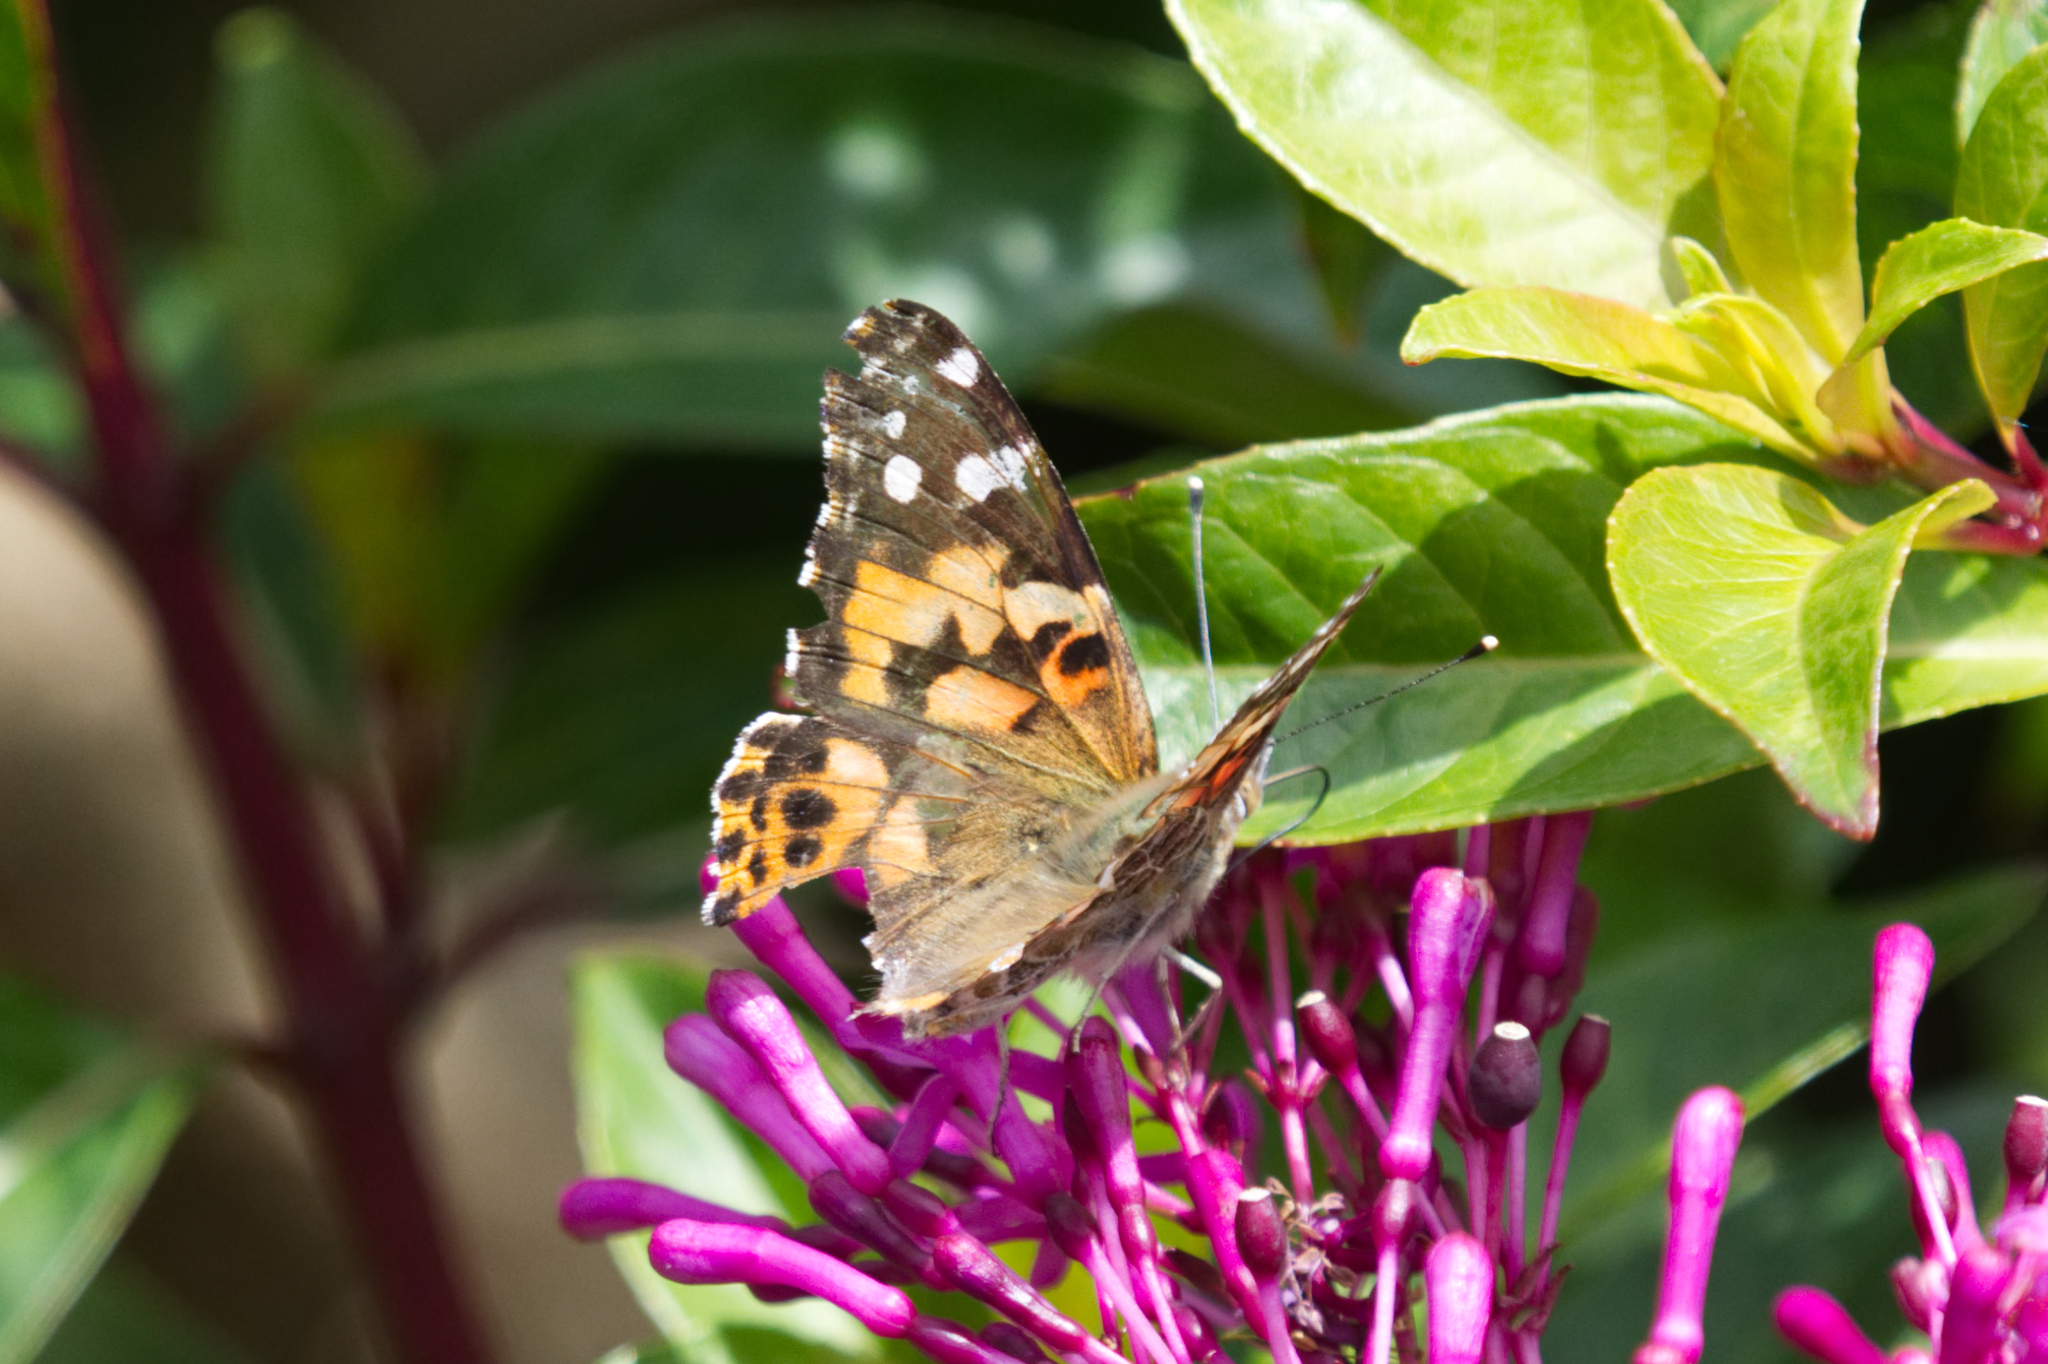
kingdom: Animalia
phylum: Arthropoda
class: Insecta
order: Lepidoptera
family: Nymphalidae
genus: Vanessa
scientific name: Vanessa cardui
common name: Painted lady
